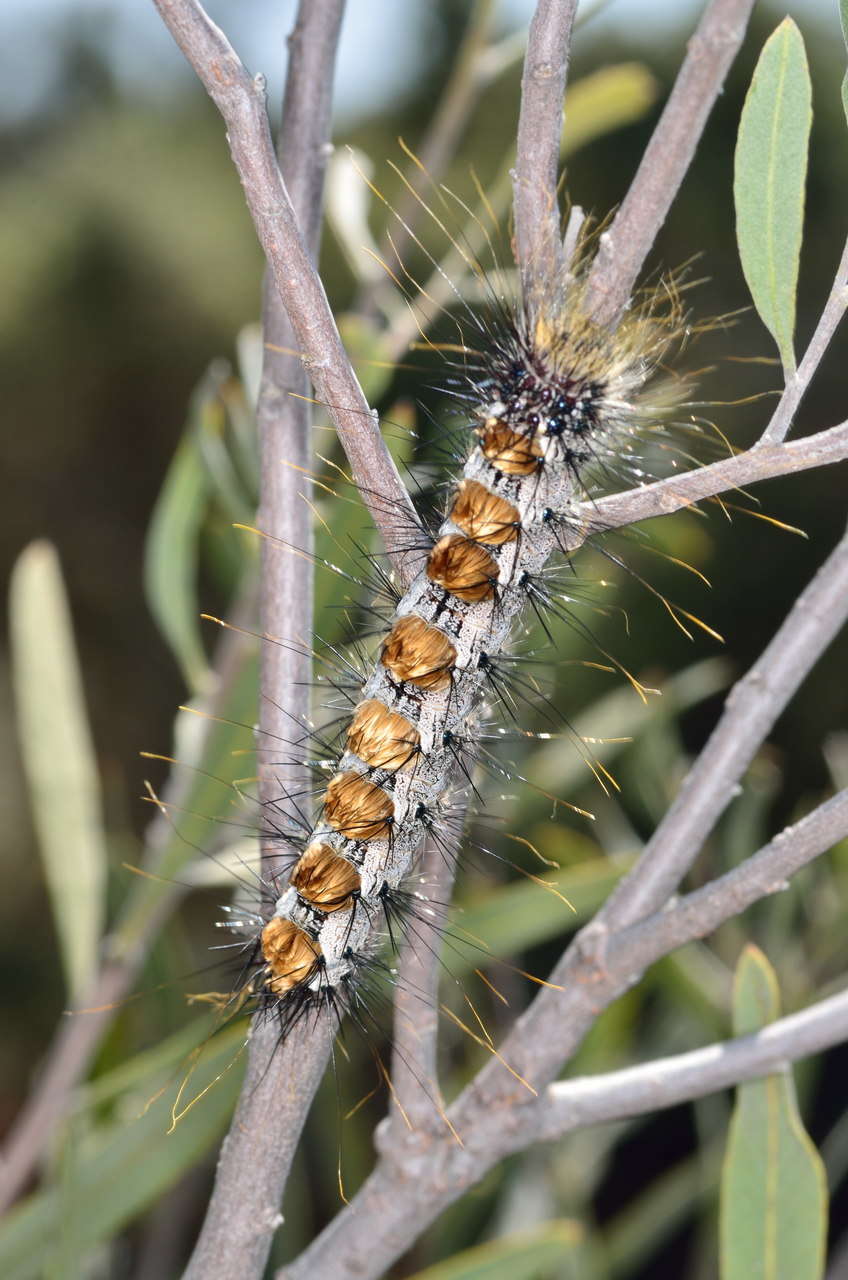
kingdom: Animalia
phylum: Arthropoda
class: Insecta
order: Lepidoptera
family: Notodontidae
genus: Aglaosoma
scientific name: Aglaosoma variegata
